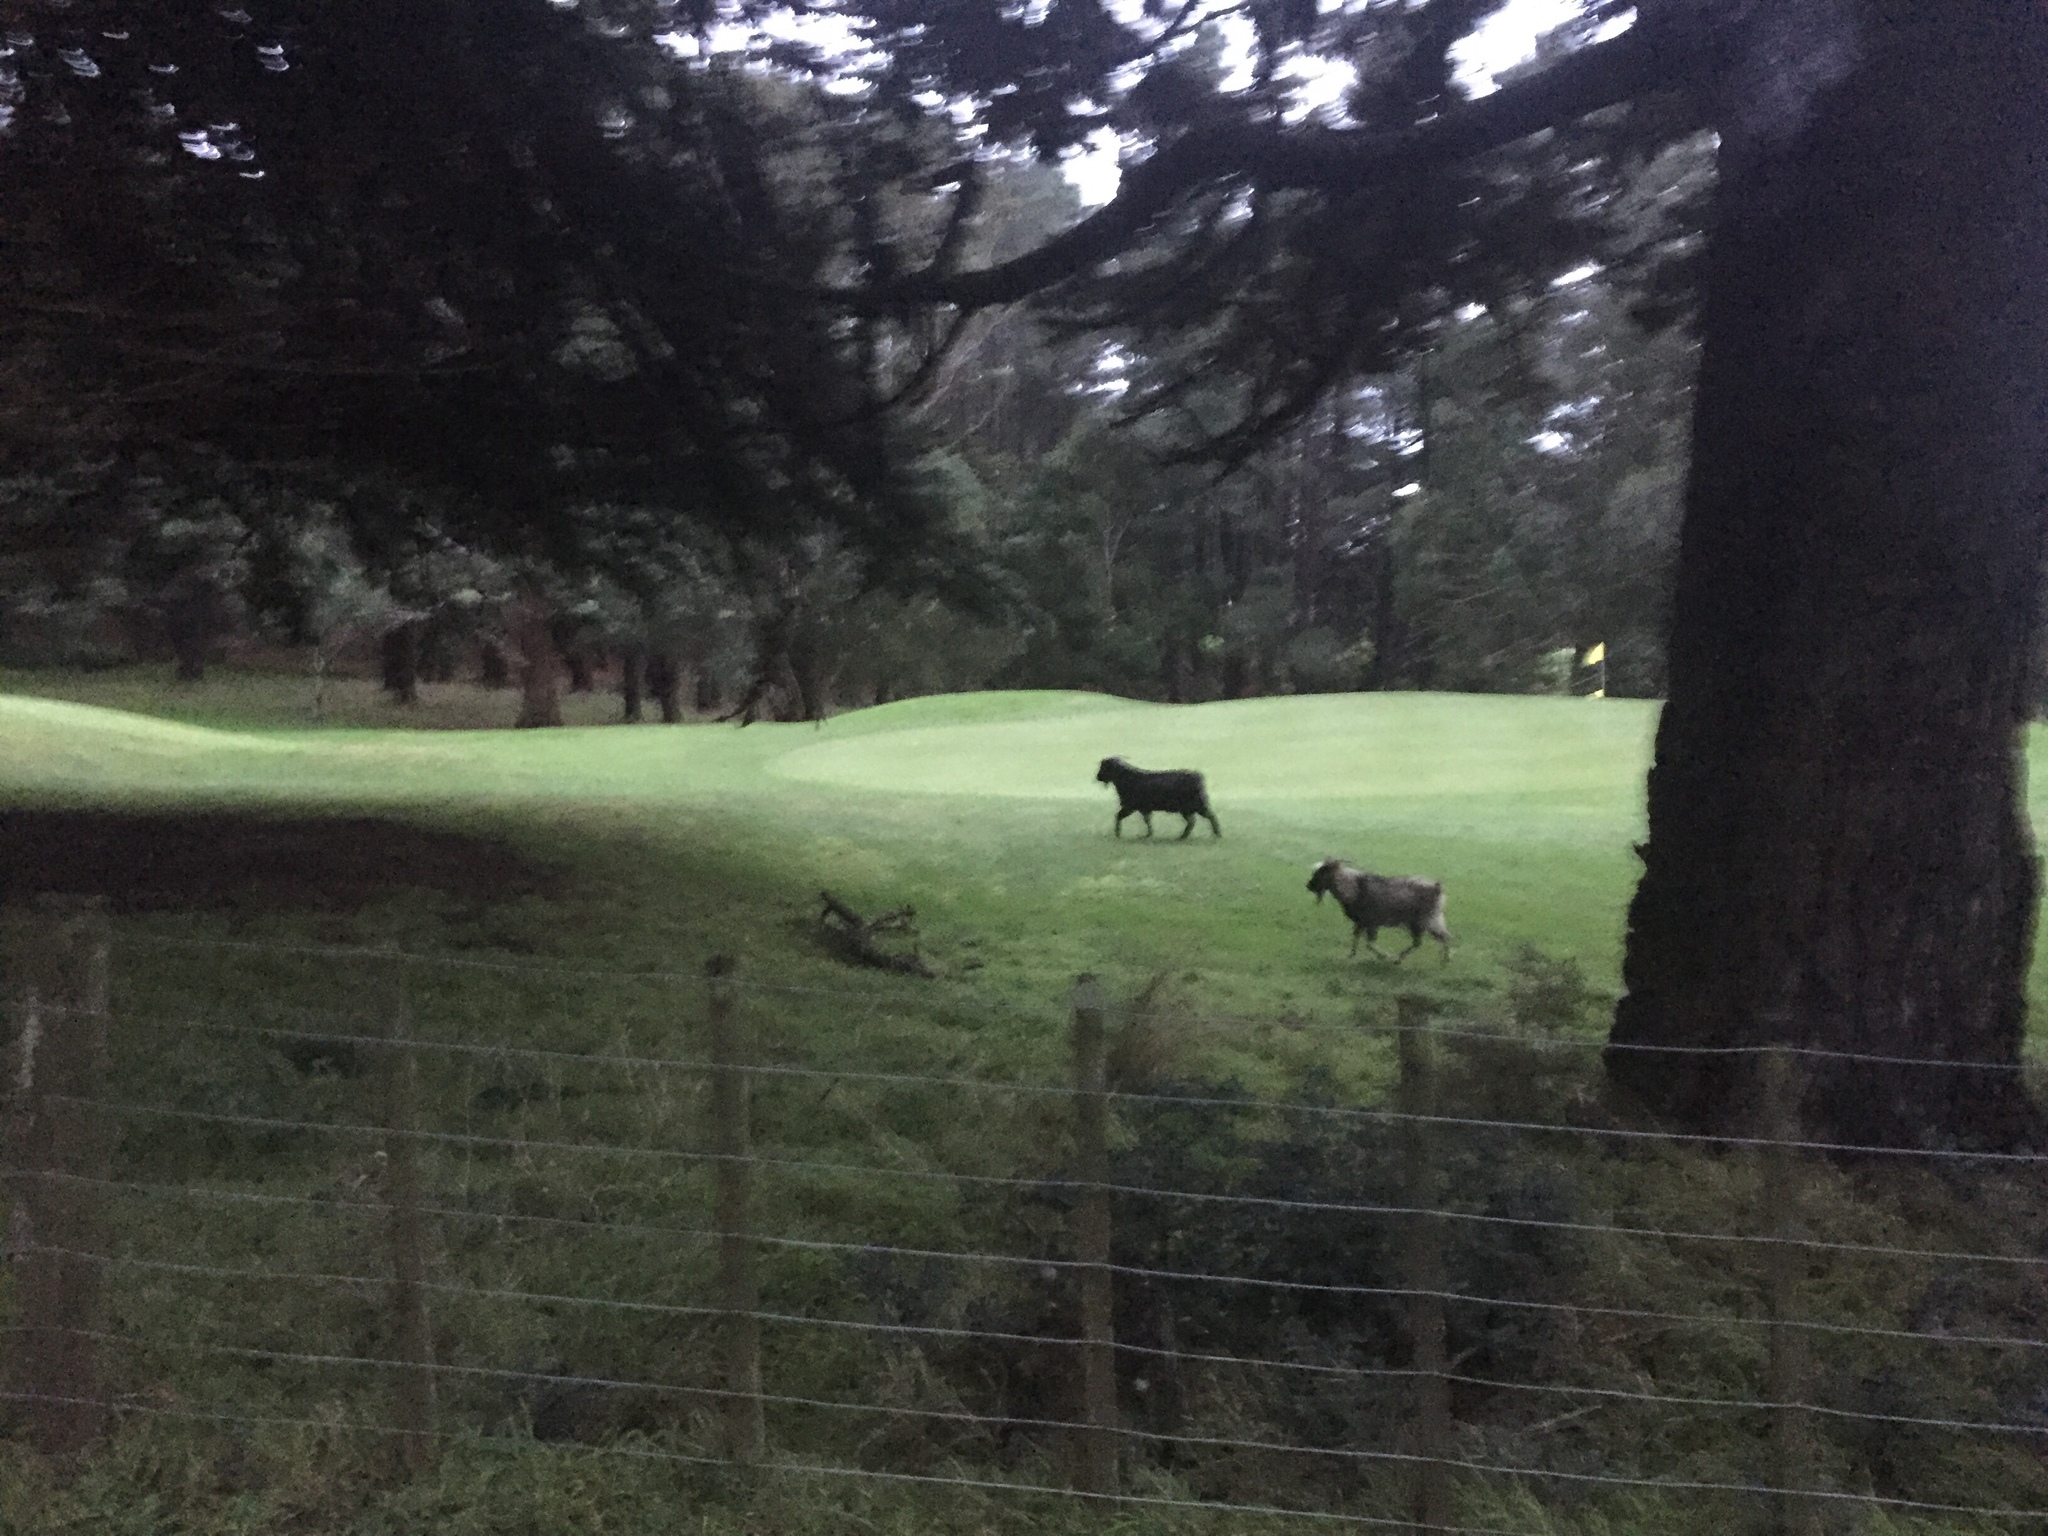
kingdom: Animalia
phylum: Chordata
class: Mammalia
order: Artiodactyla
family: Bovidae
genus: Capra
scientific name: Capra hircus
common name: Domestic goat
